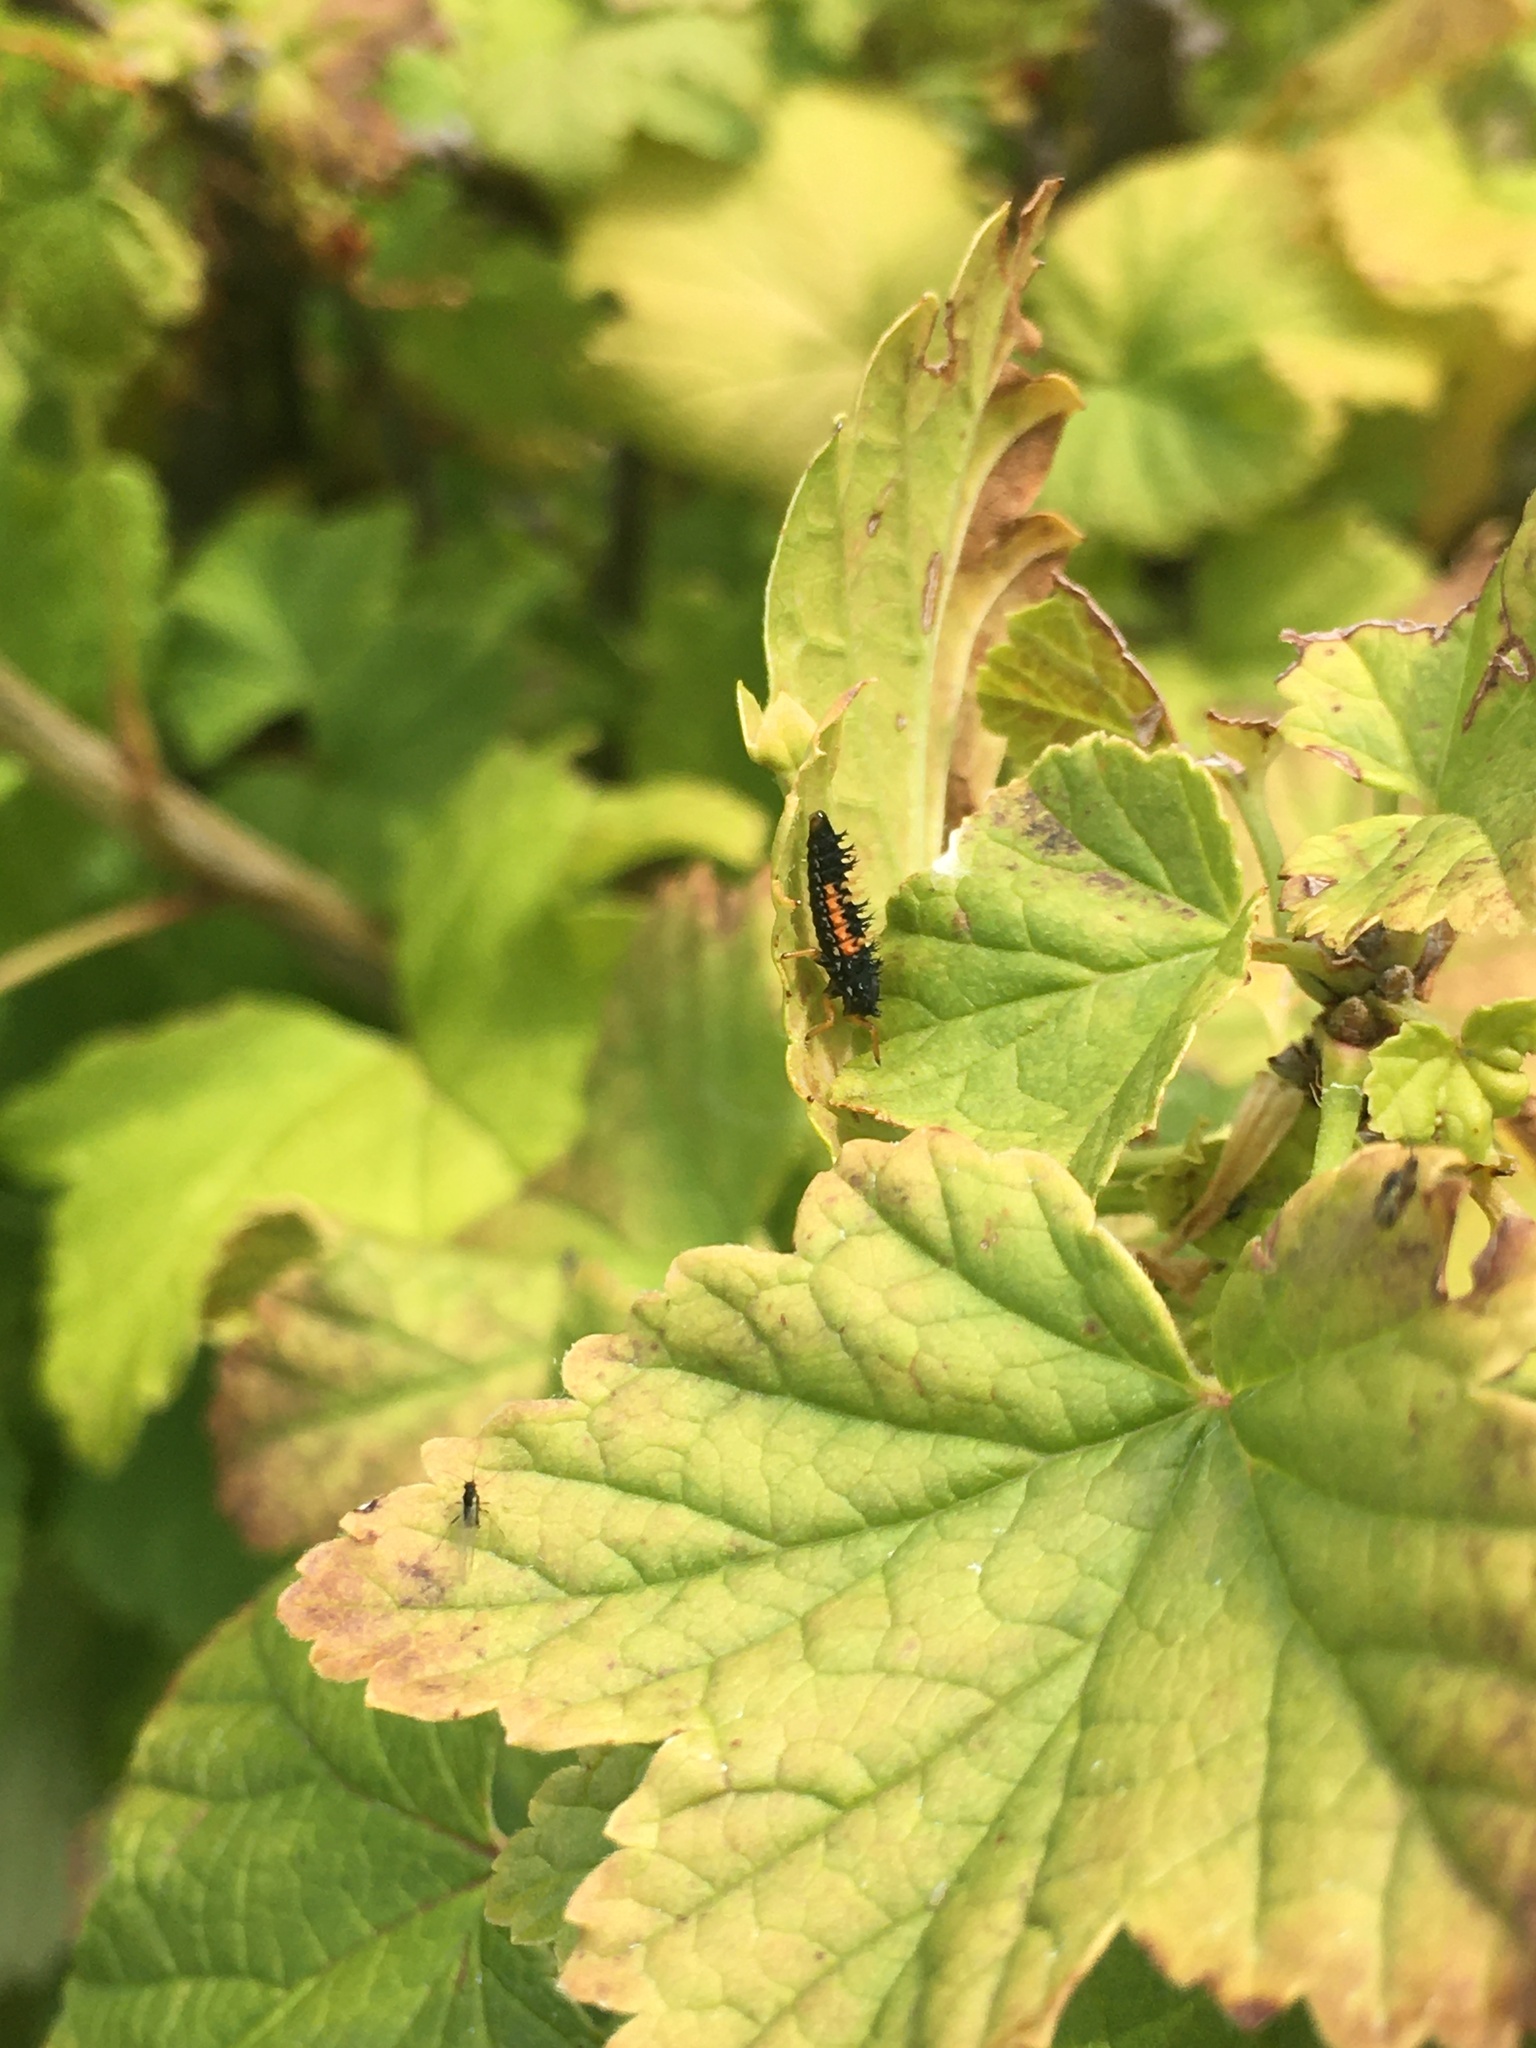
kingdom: Animalia
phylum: Arthropoda
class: Insecta
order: Coleoptera
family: Coccinellidae
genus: Harmonia
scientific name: Harmonia axyridis
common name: Harlequin ladybird
